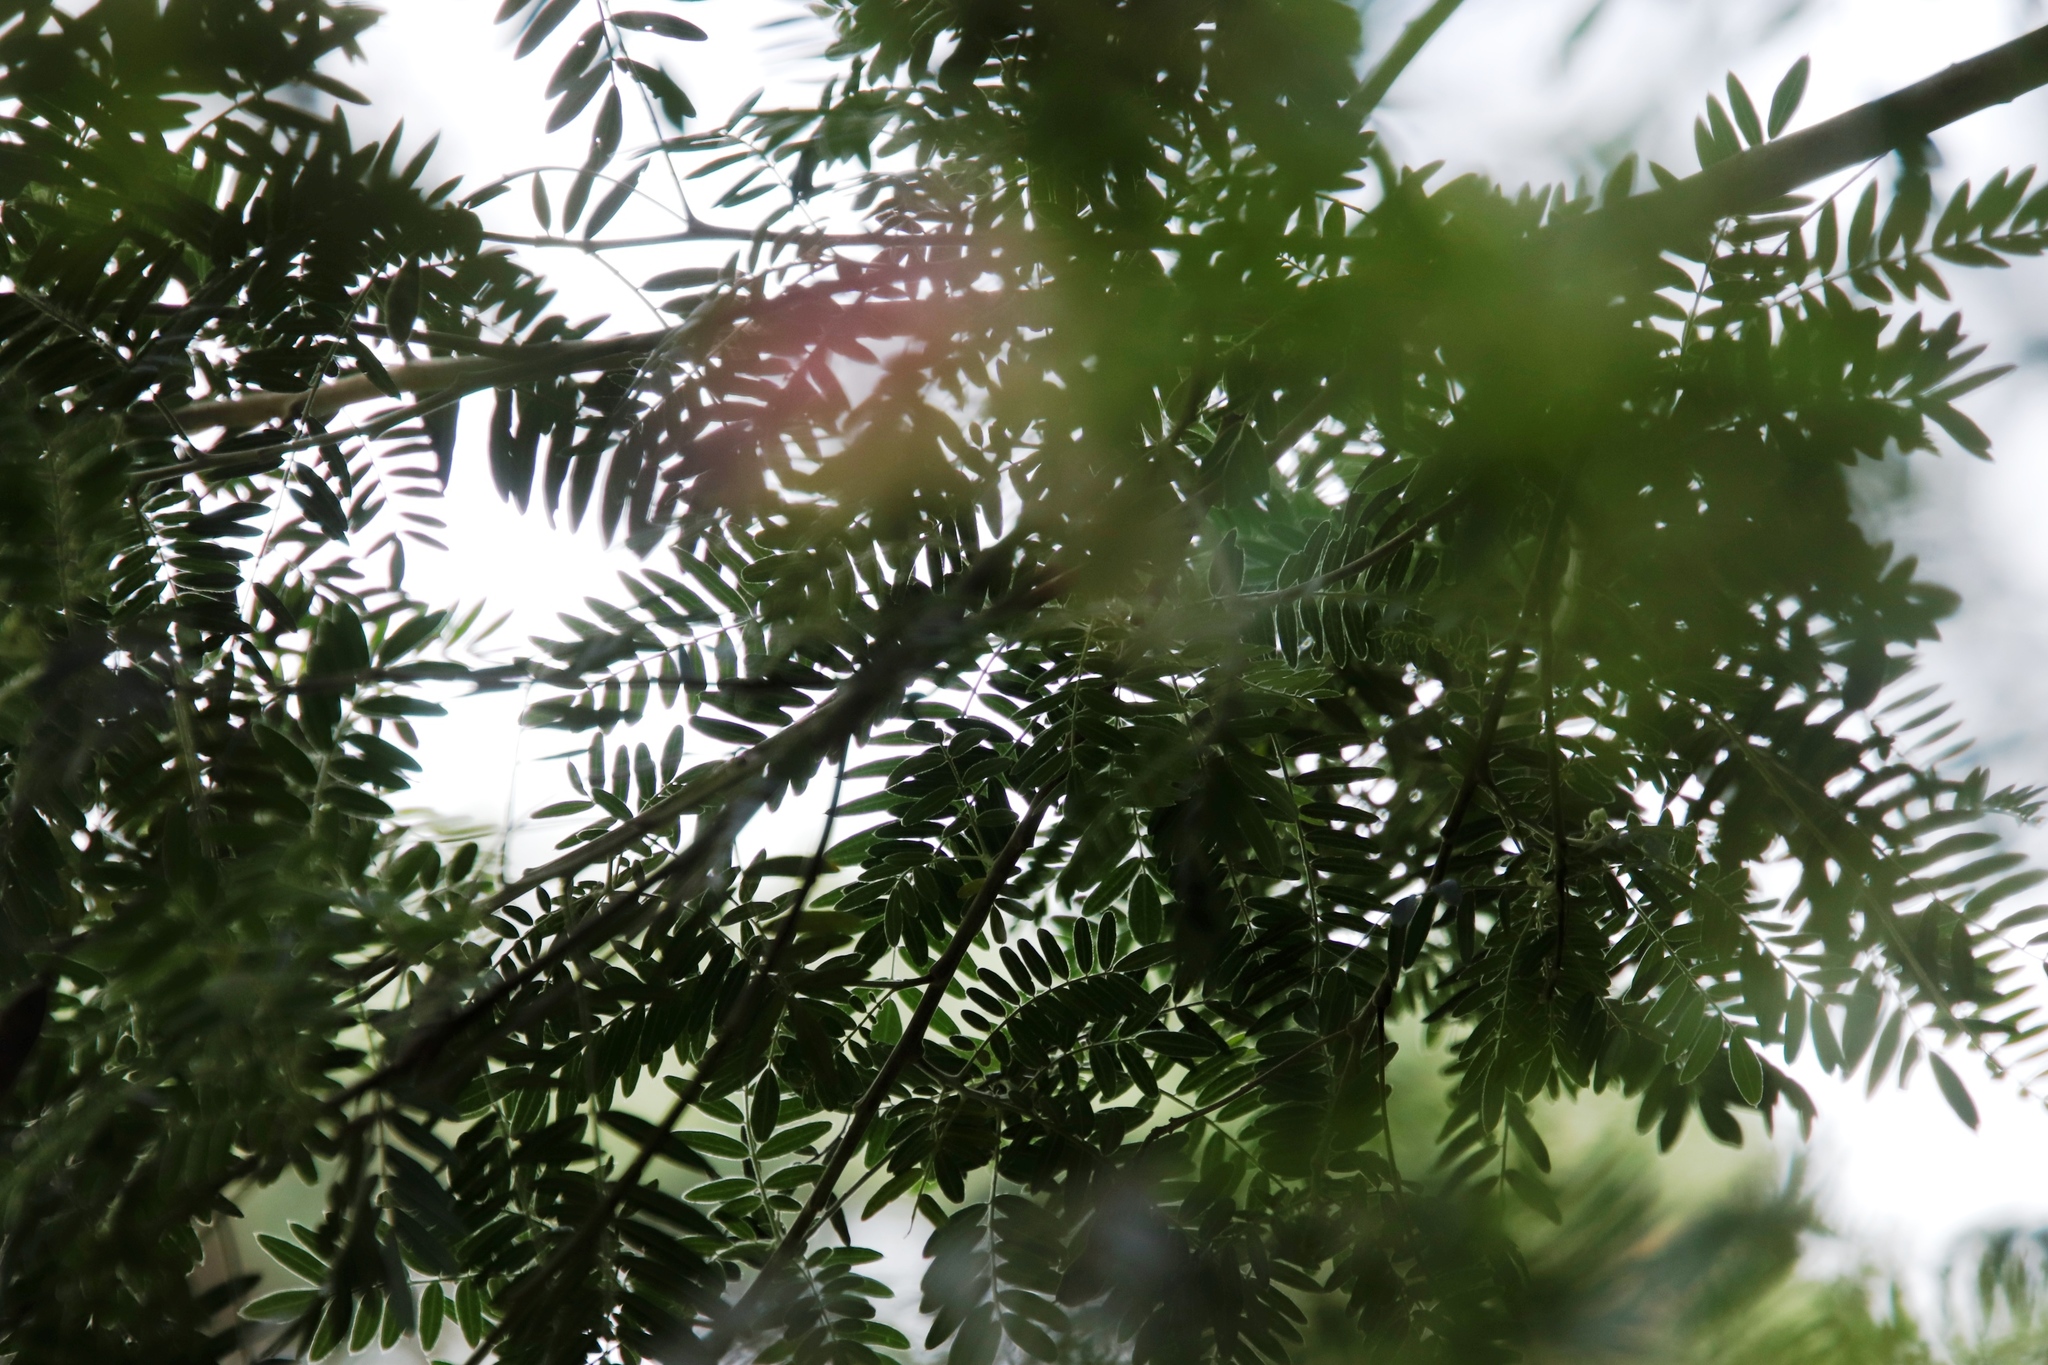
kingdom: Plantae
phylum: Tracheophyta
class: Magnoliopsida
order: Fabales
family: Fabaceae
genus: Virgilia
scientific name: Virgilia oroboides
